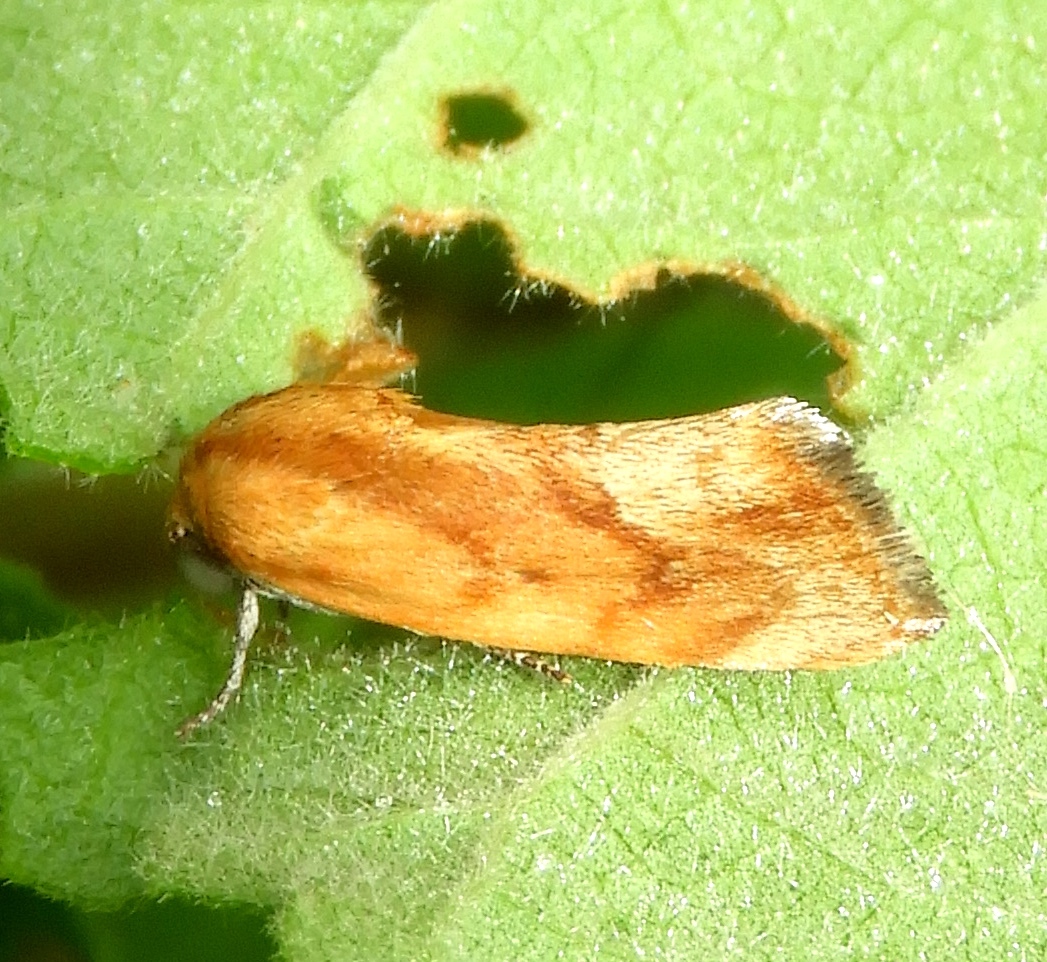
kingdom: Animalia
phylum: Arthropoda
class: Insecta
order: Lepidoptera
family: Noctuidae
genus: Ponometia
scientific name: Ponometia
